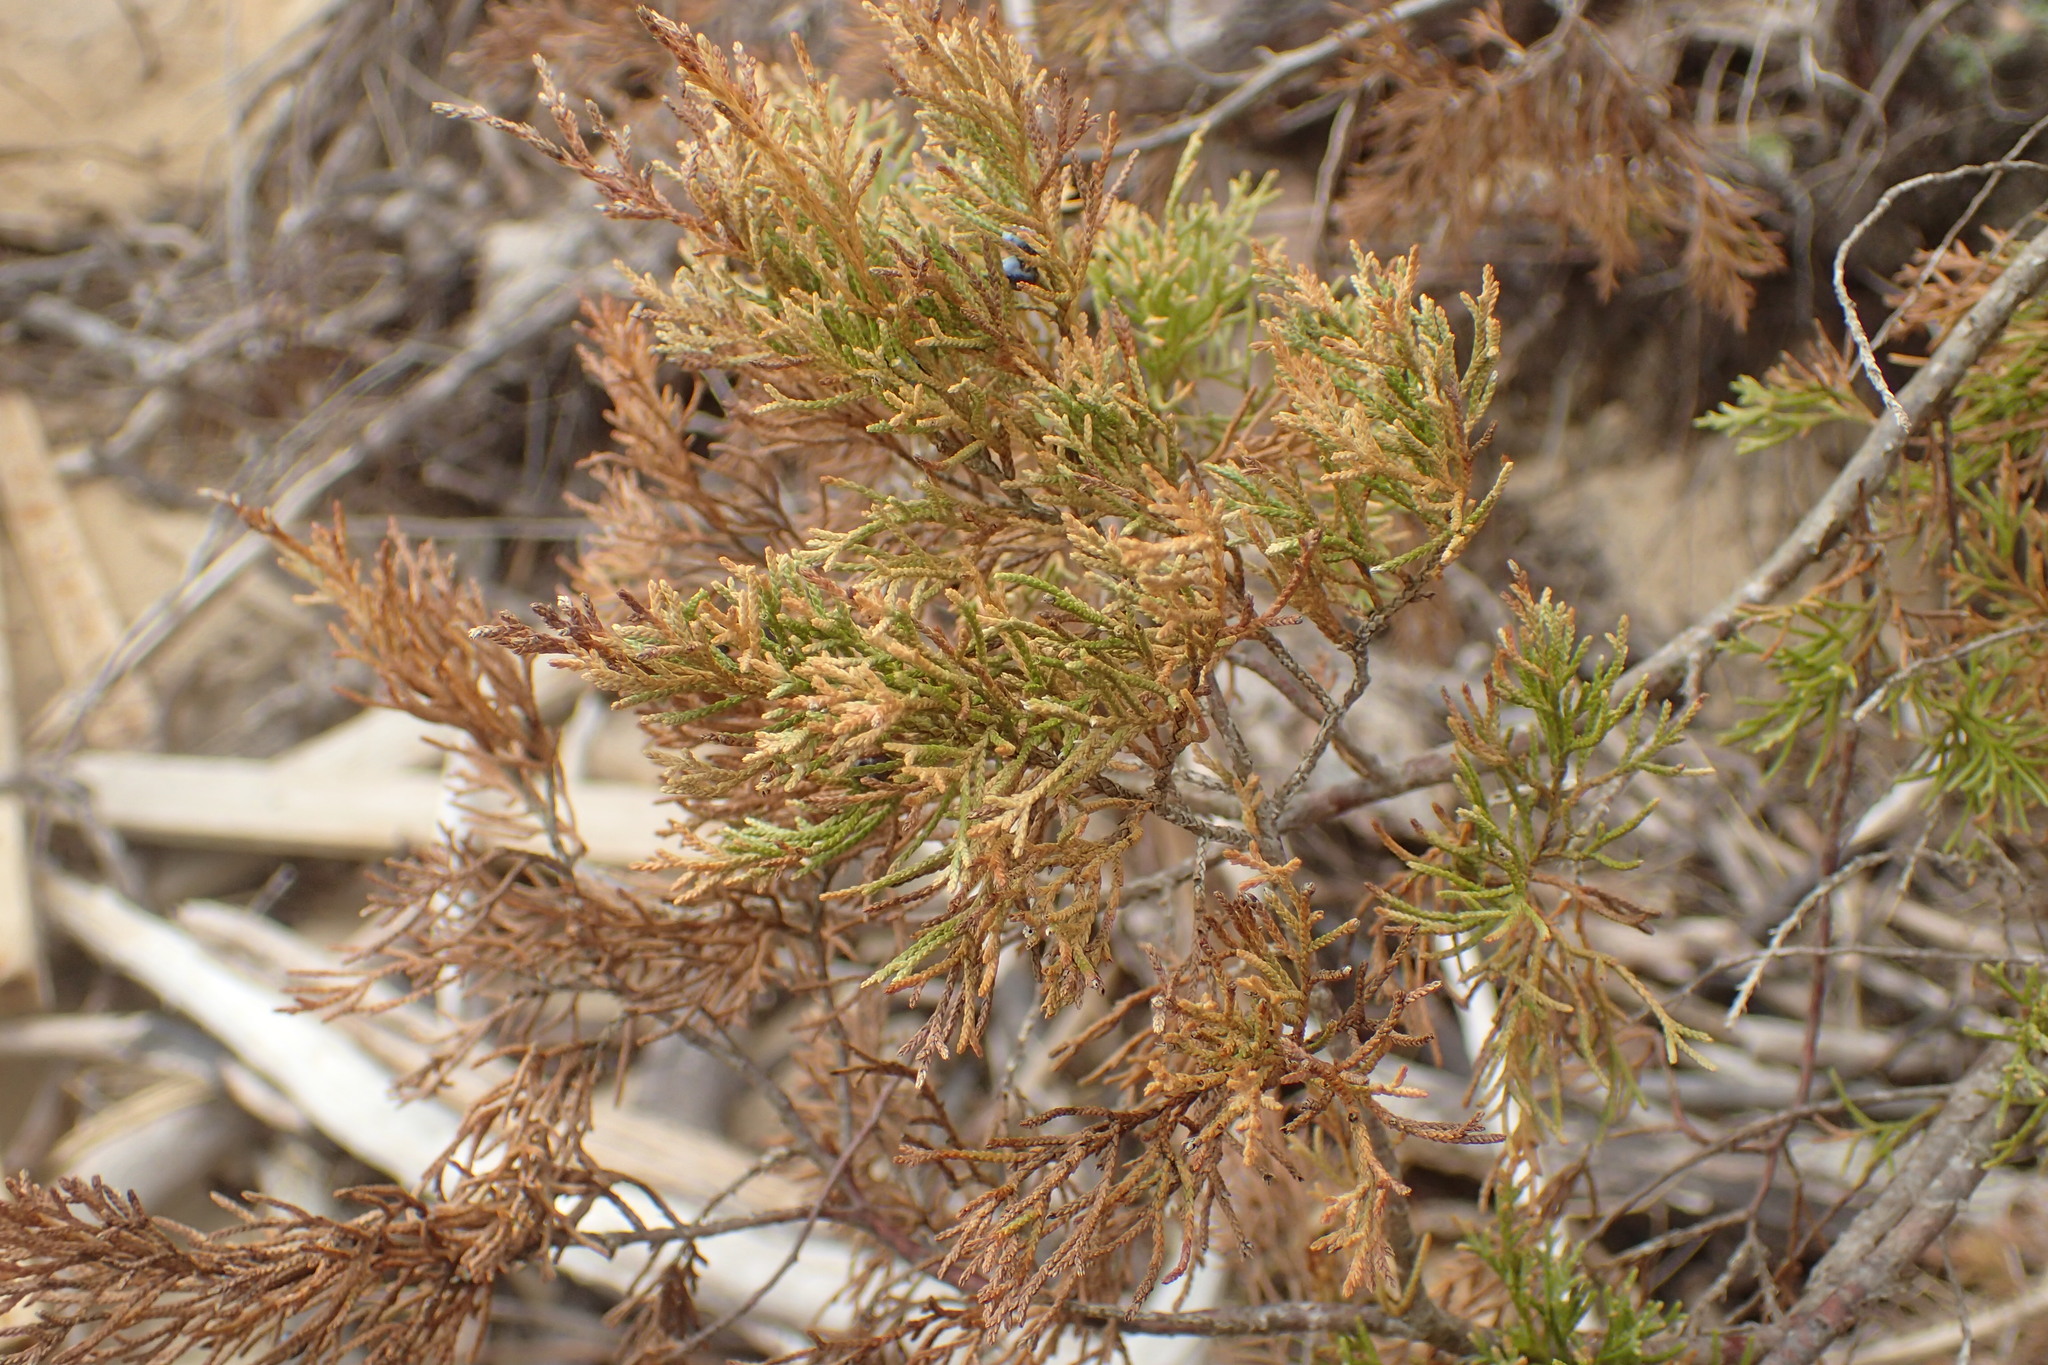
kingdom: Plantae
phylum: Tracheophyta
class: Pinopsida
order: Pinales
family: Cupressaceae
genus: Juniperus
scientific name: Juniperus virginiana
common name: Red juniper
